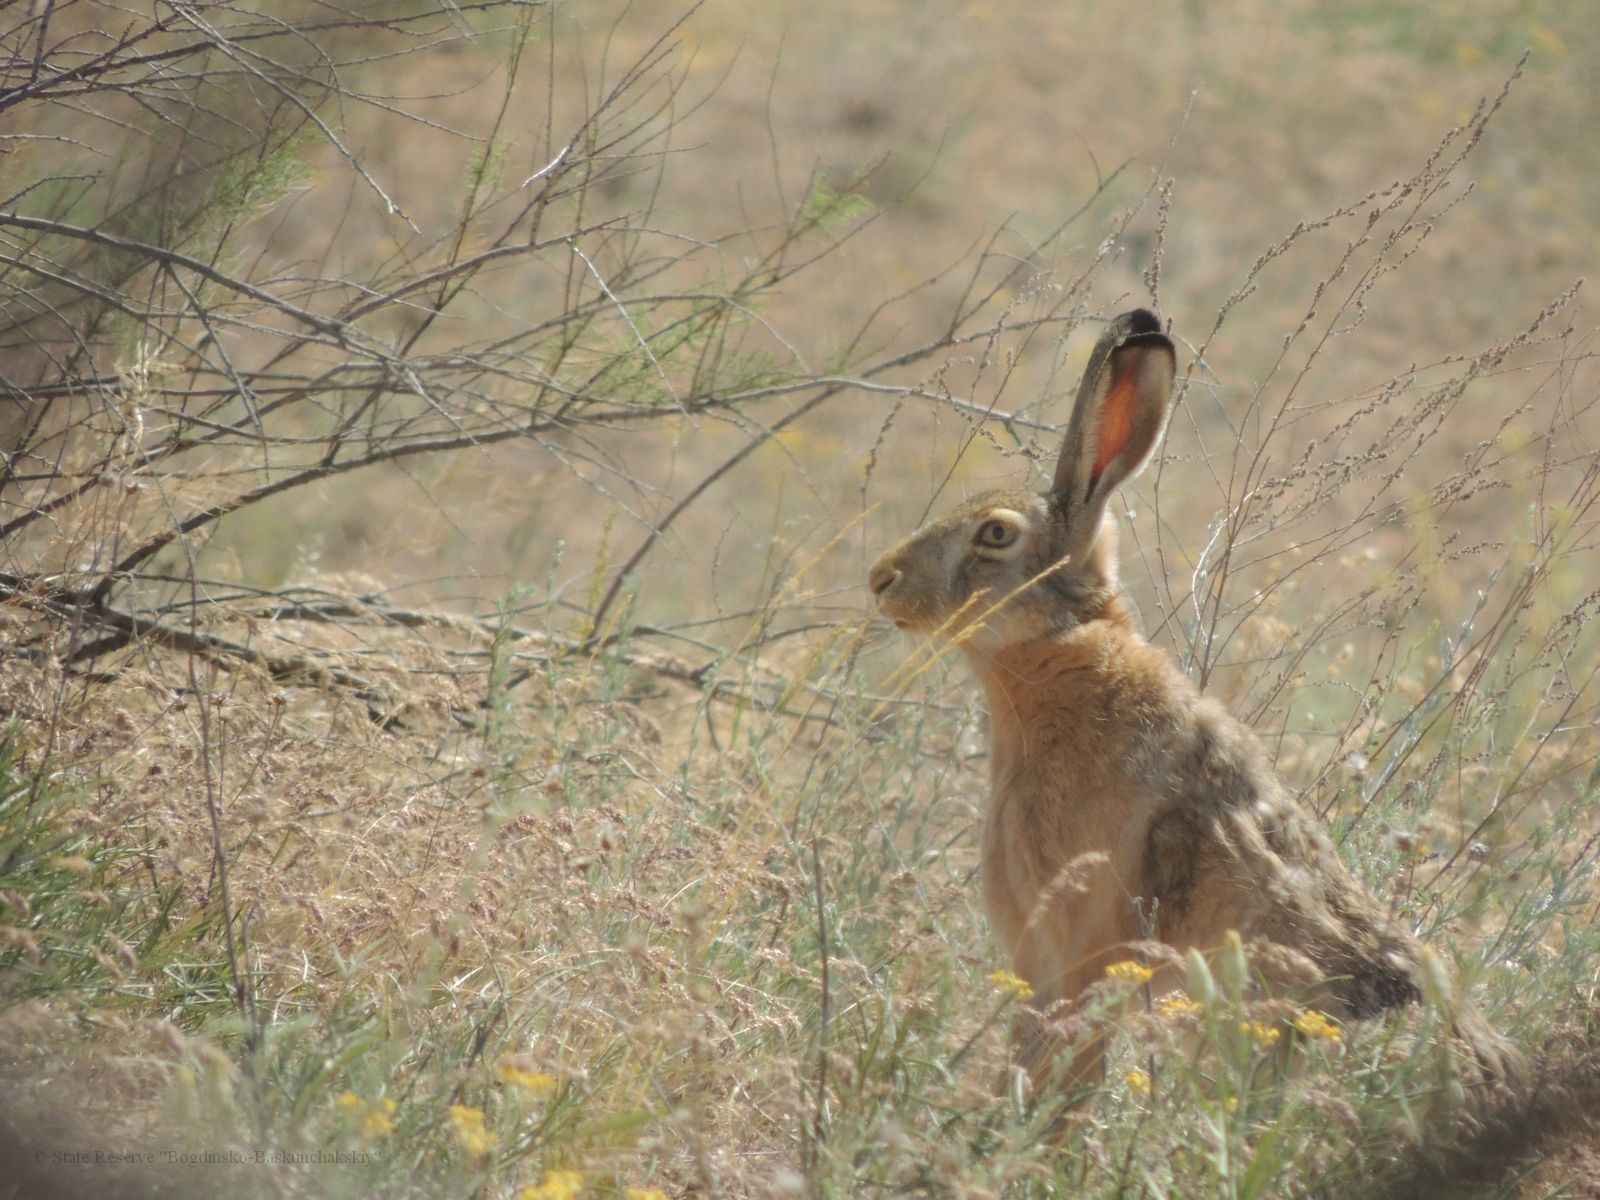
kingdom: Animalia
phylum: Chordata
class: Mammalia
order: Lagomorpha
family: Leporidae
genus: Lepus
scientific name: Lepus europaeus
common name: European hare
